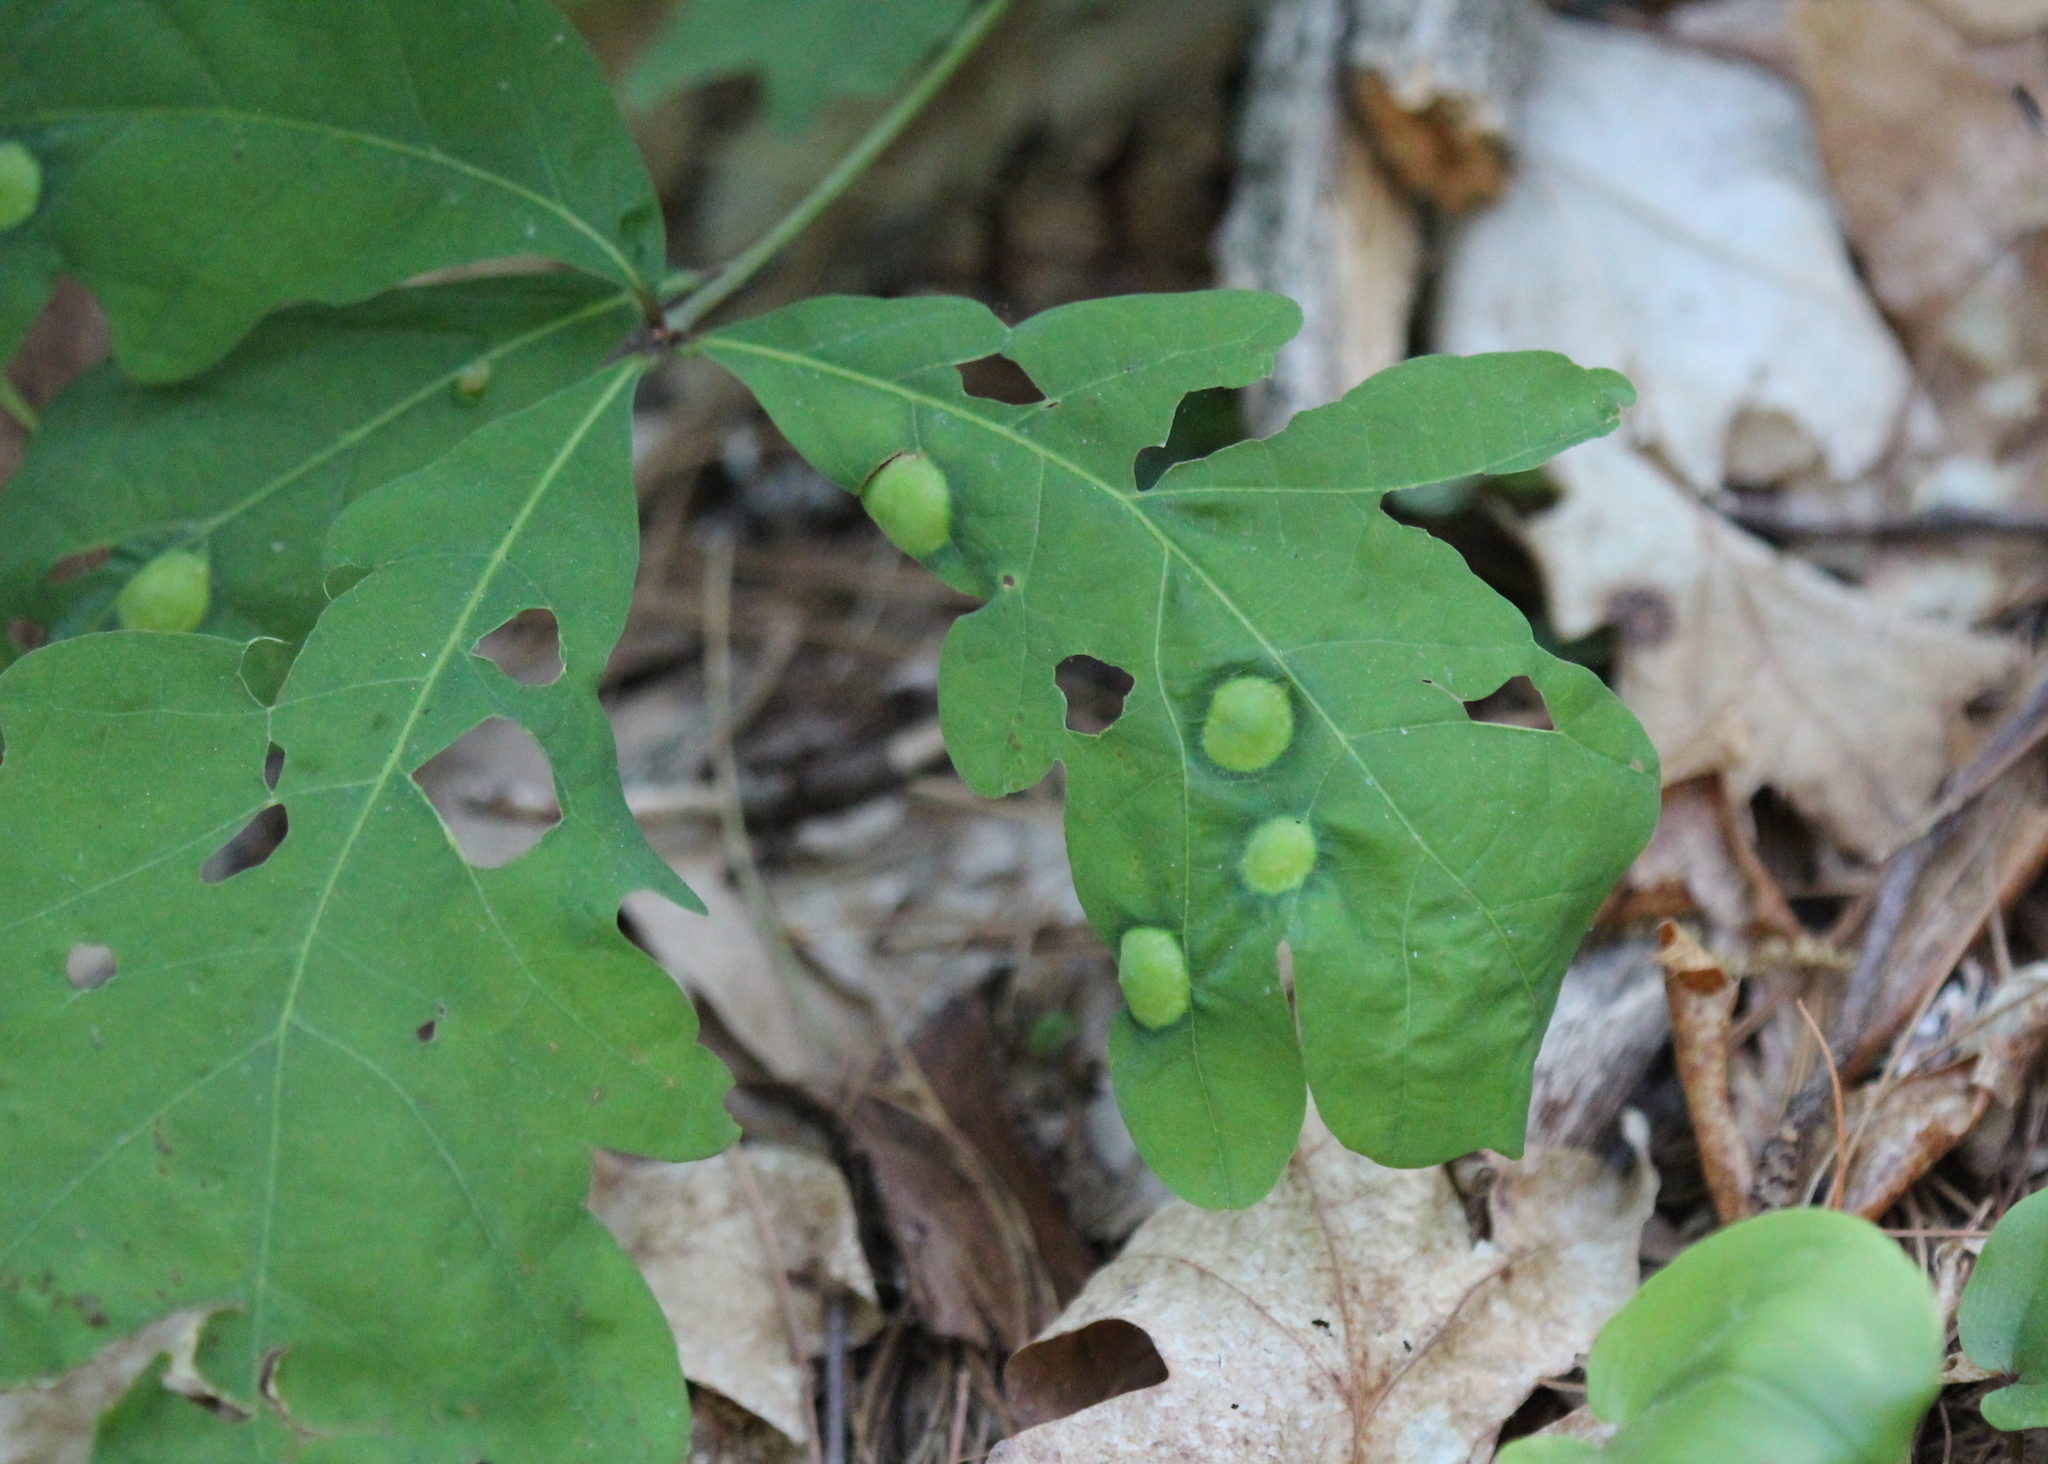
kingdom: Animalia
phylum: Arthropoda
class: Insecta
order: Hymenoptera
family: Cynipidae
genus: Callirhytis
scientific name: Callirhytis
